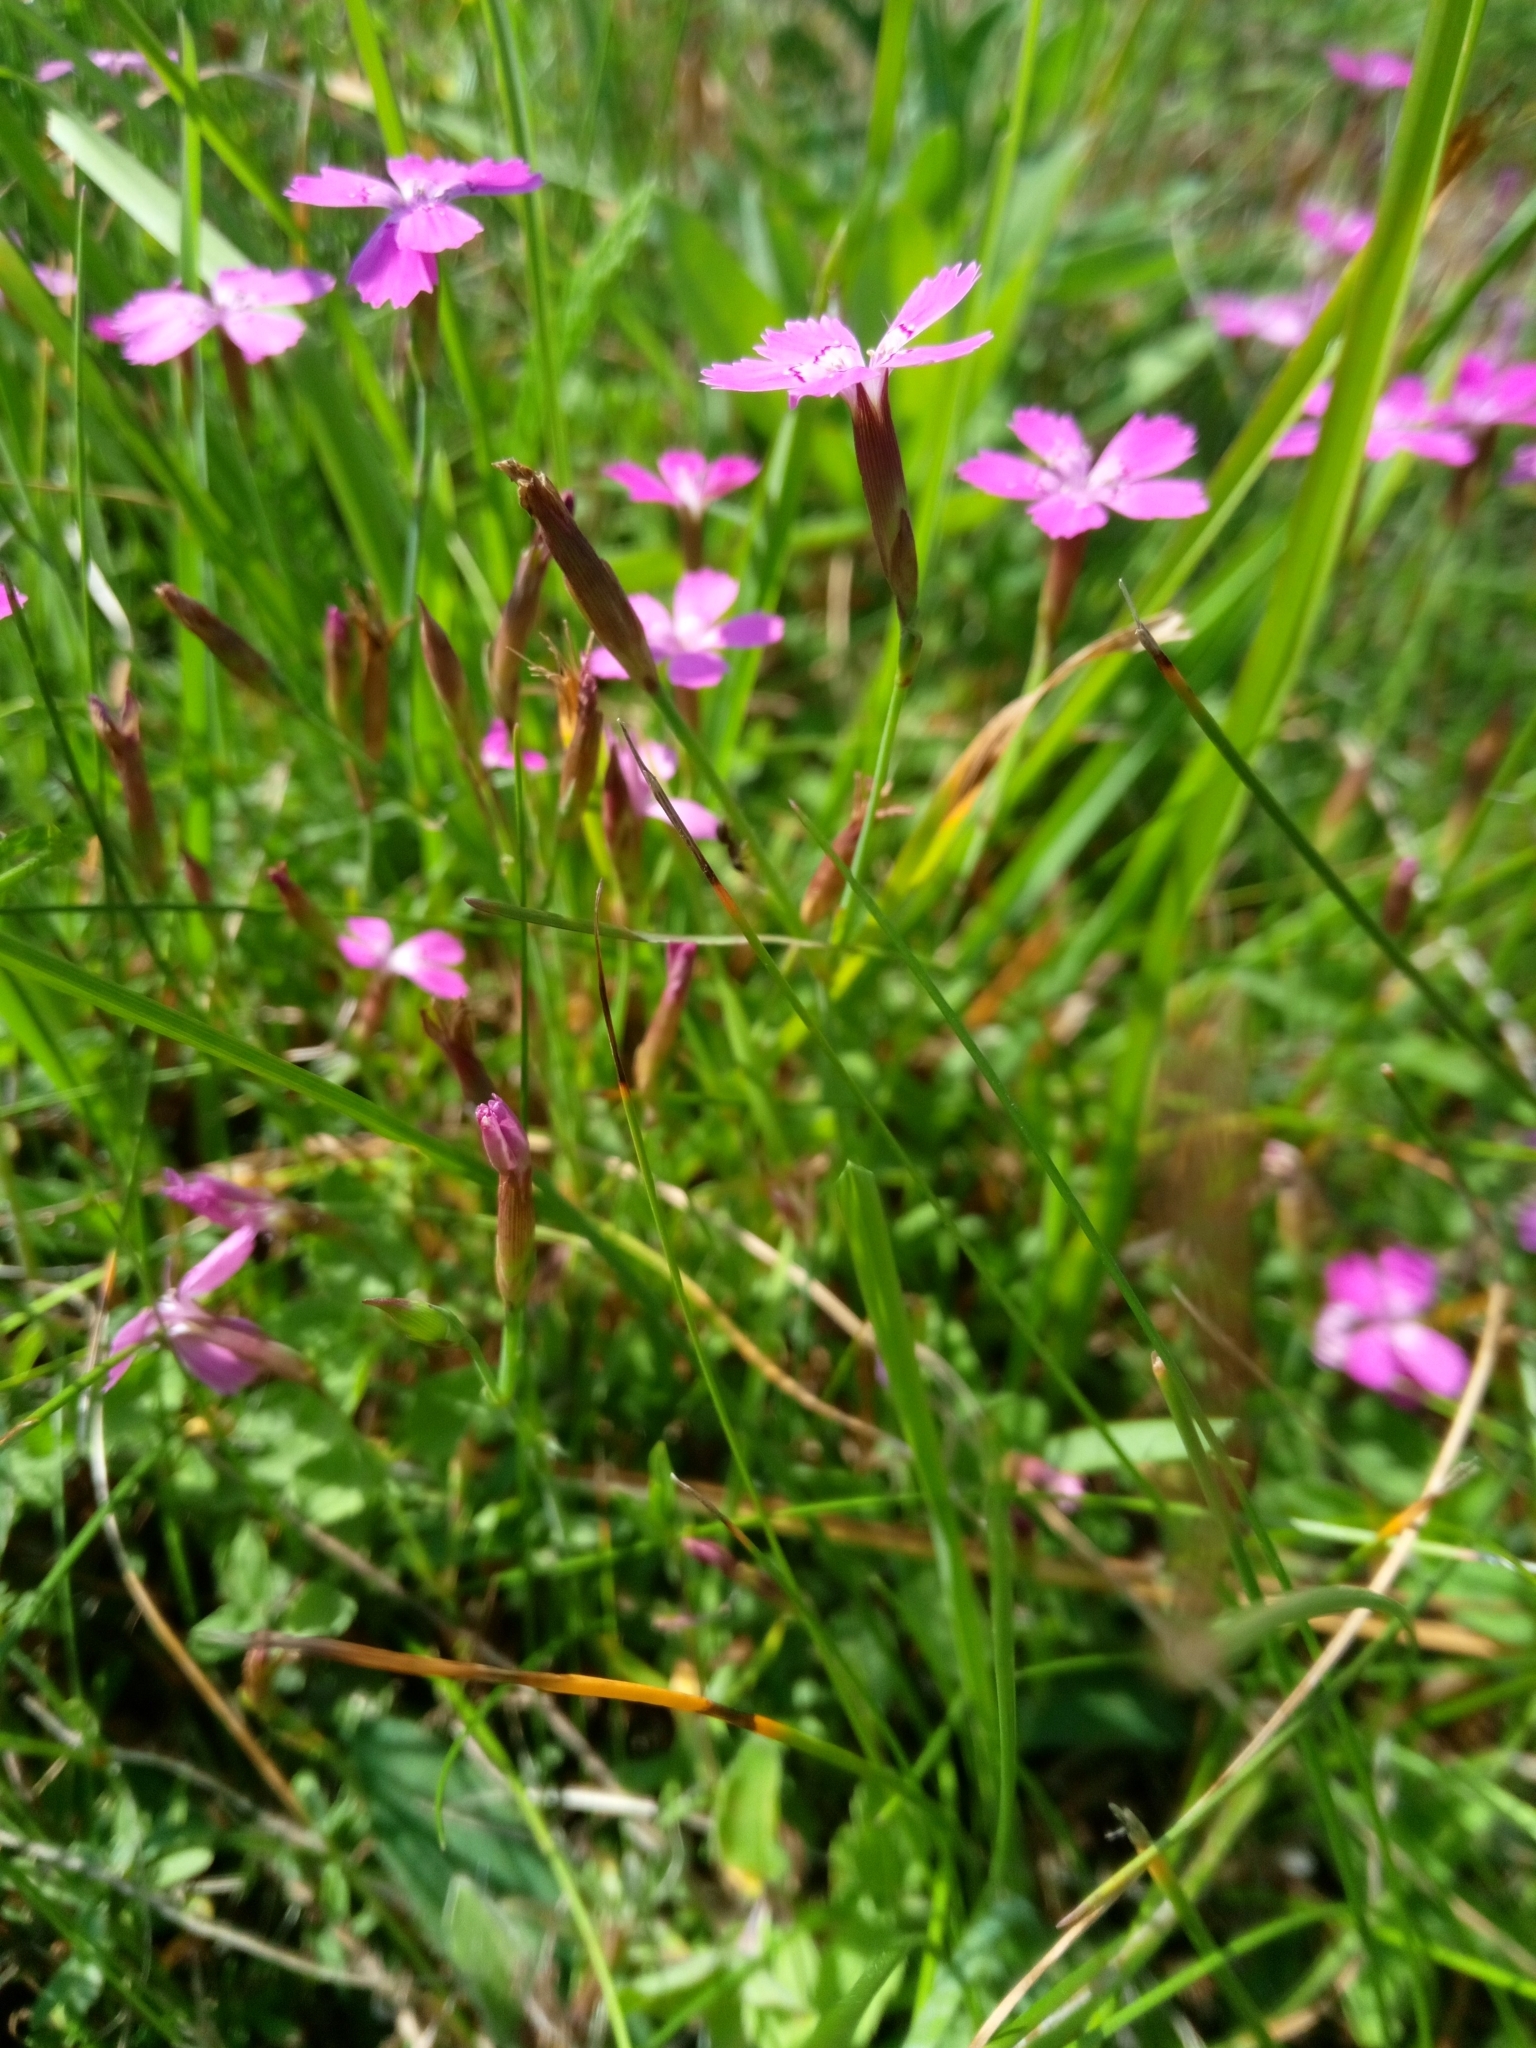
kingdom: Plantae
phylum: Tracheophyta
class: Magnoliopsida
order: Caryophyllales
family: Caryophyllaceae
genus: Dianthus
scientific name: Dianthus deltoides
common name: Maiden pink
